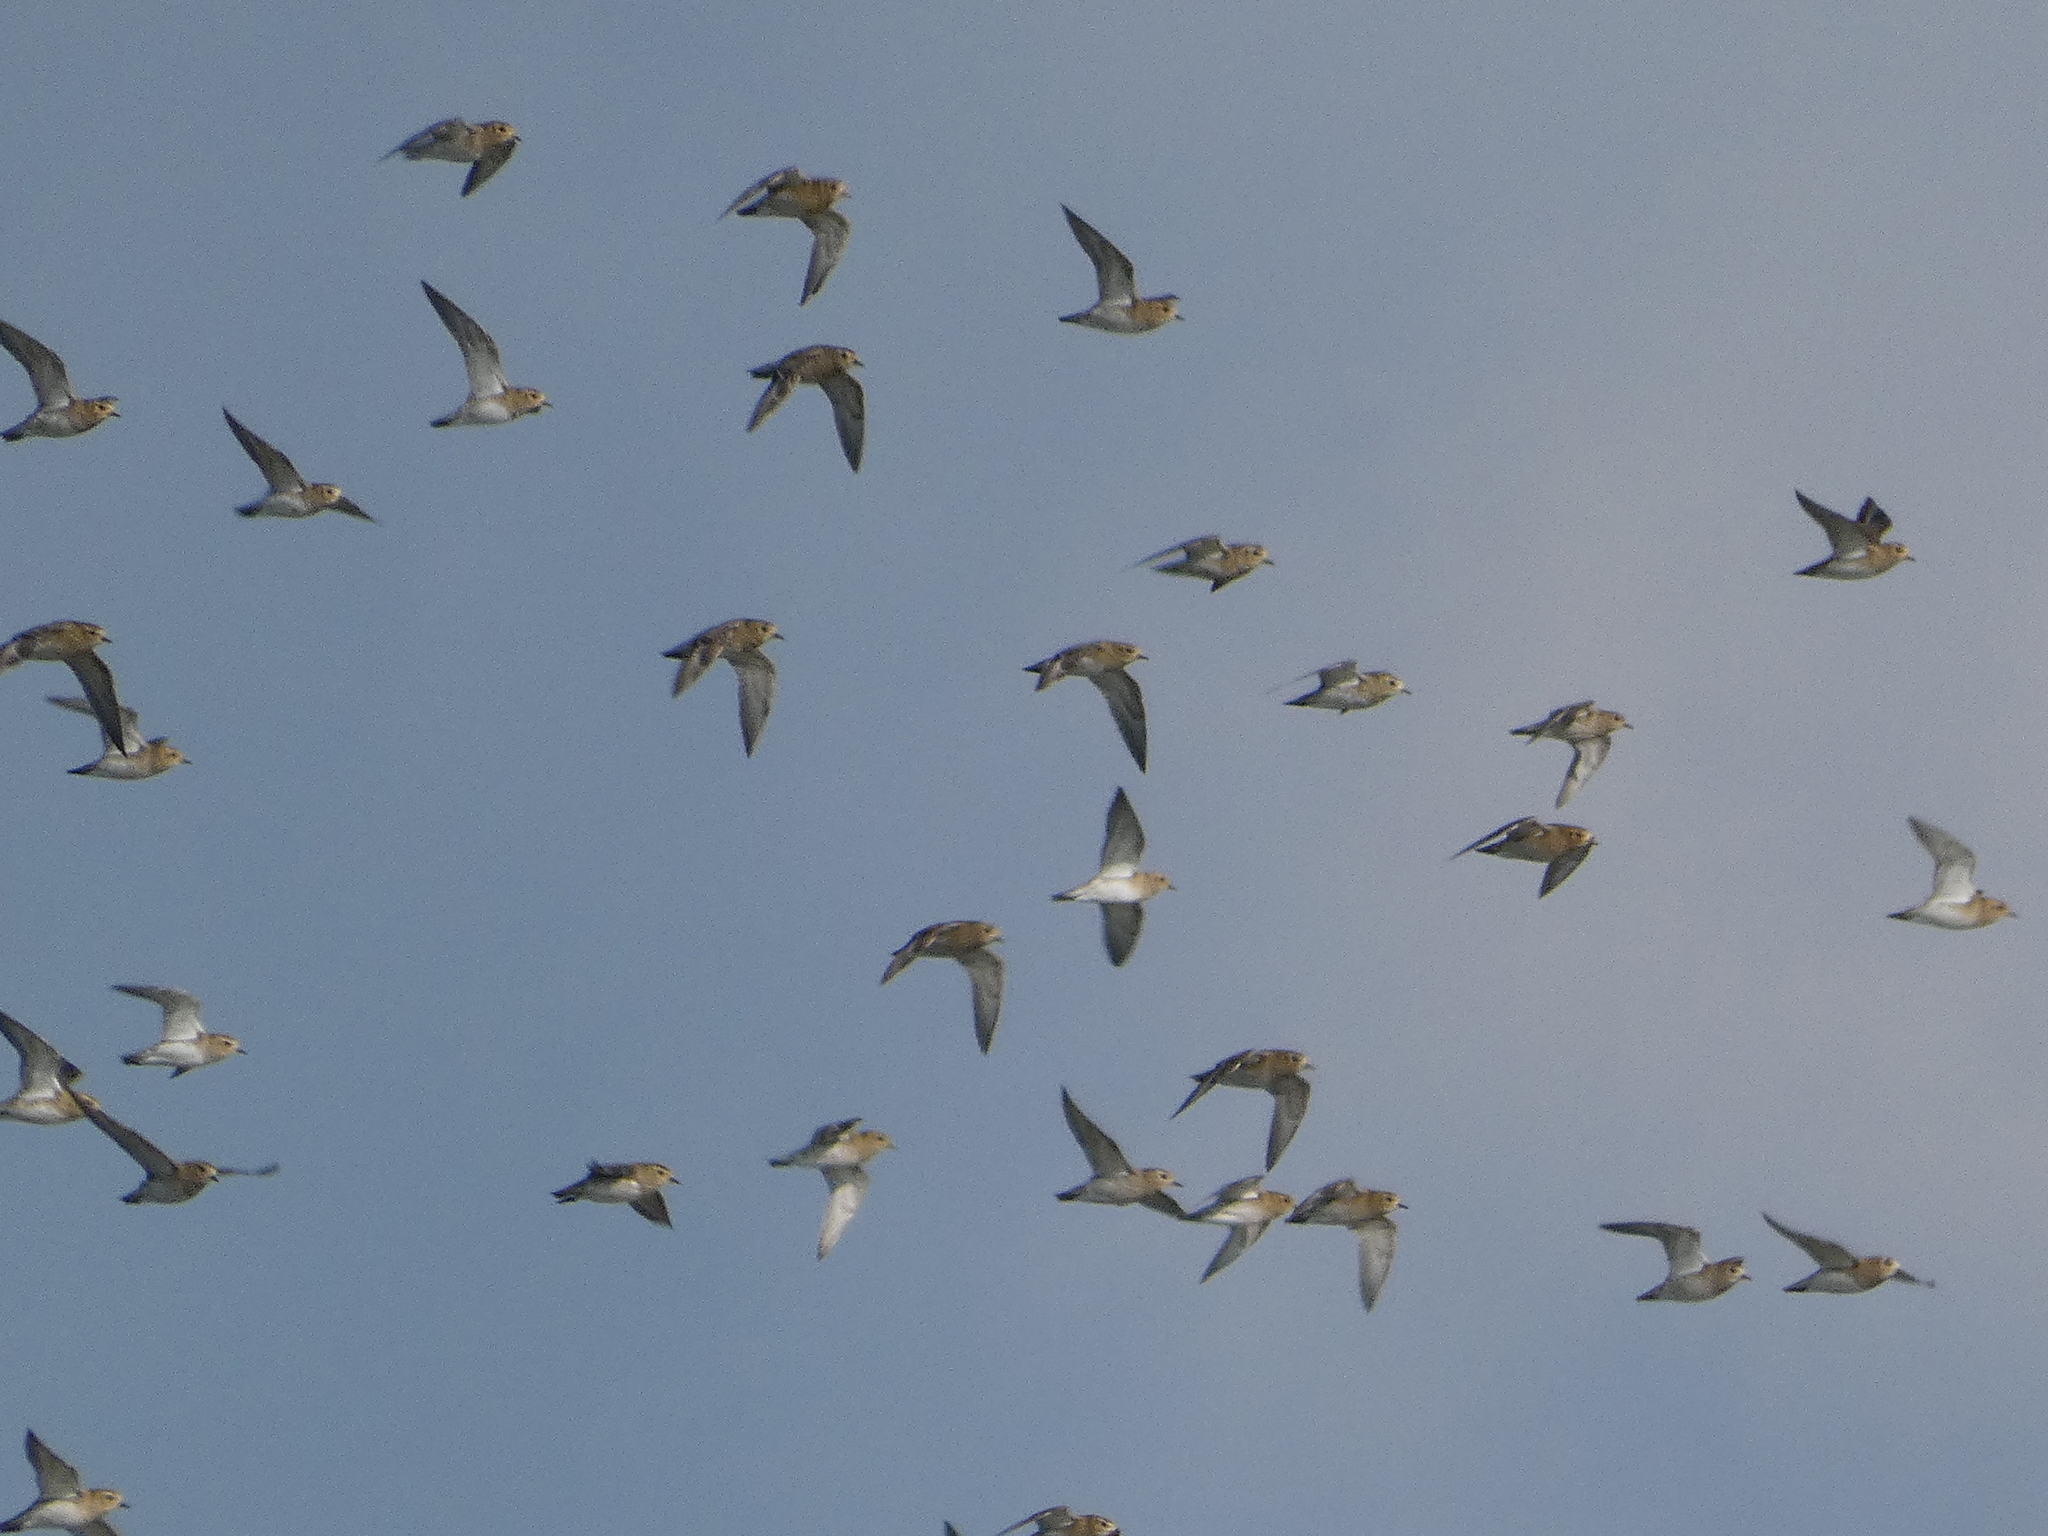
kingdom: Animalia
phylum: Chordata
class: Aves
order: Charadriiformes
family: Charadriidae
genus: Pluvialis
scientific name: Pluvialis apricaria
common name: European golden plover
